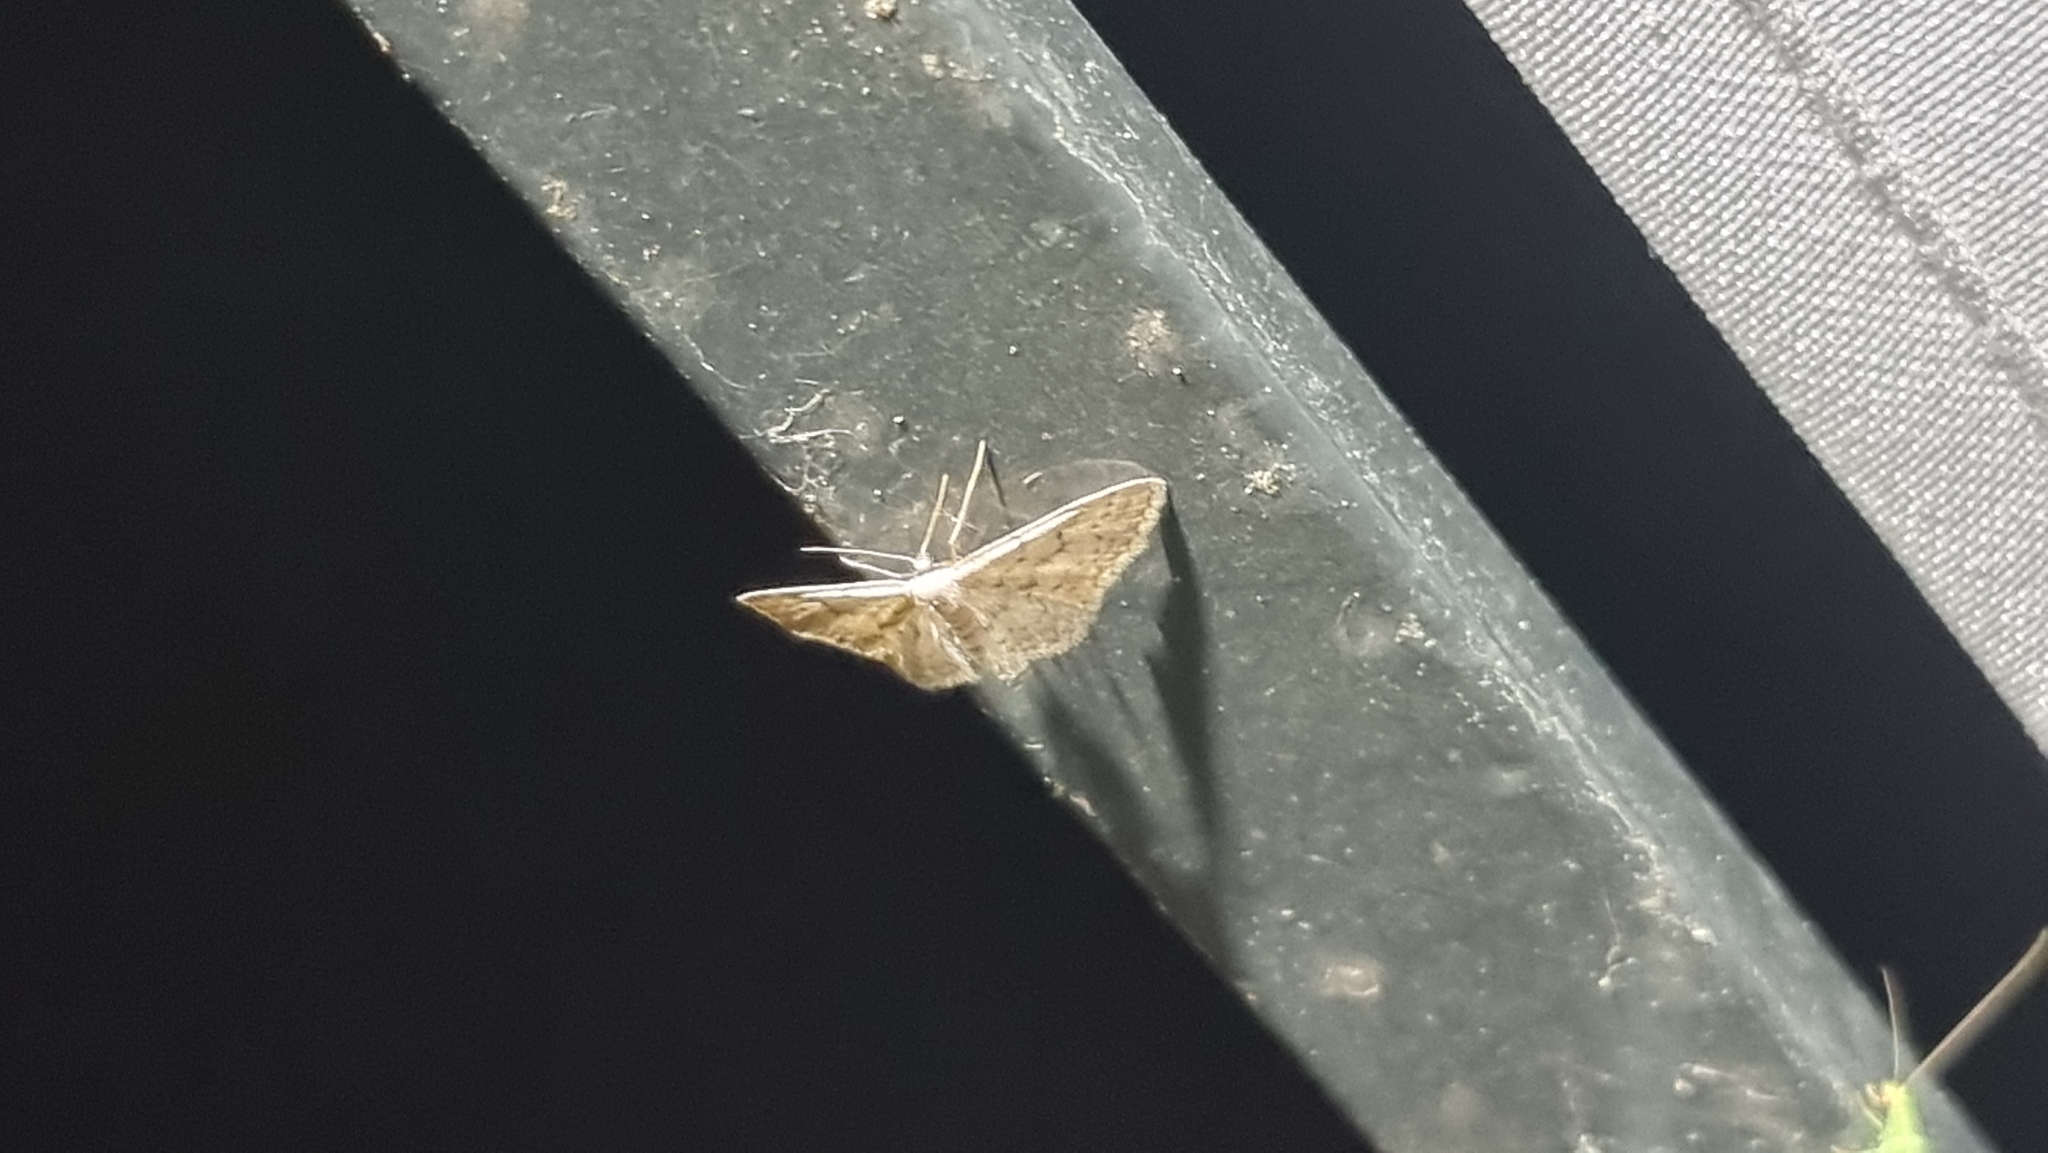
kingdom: Animalia
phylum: Arthropoda
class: Insecta
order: Lepidoptera
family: Geometridae
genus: Idaea
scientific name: Idaea seriata
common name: Small dusty wave
